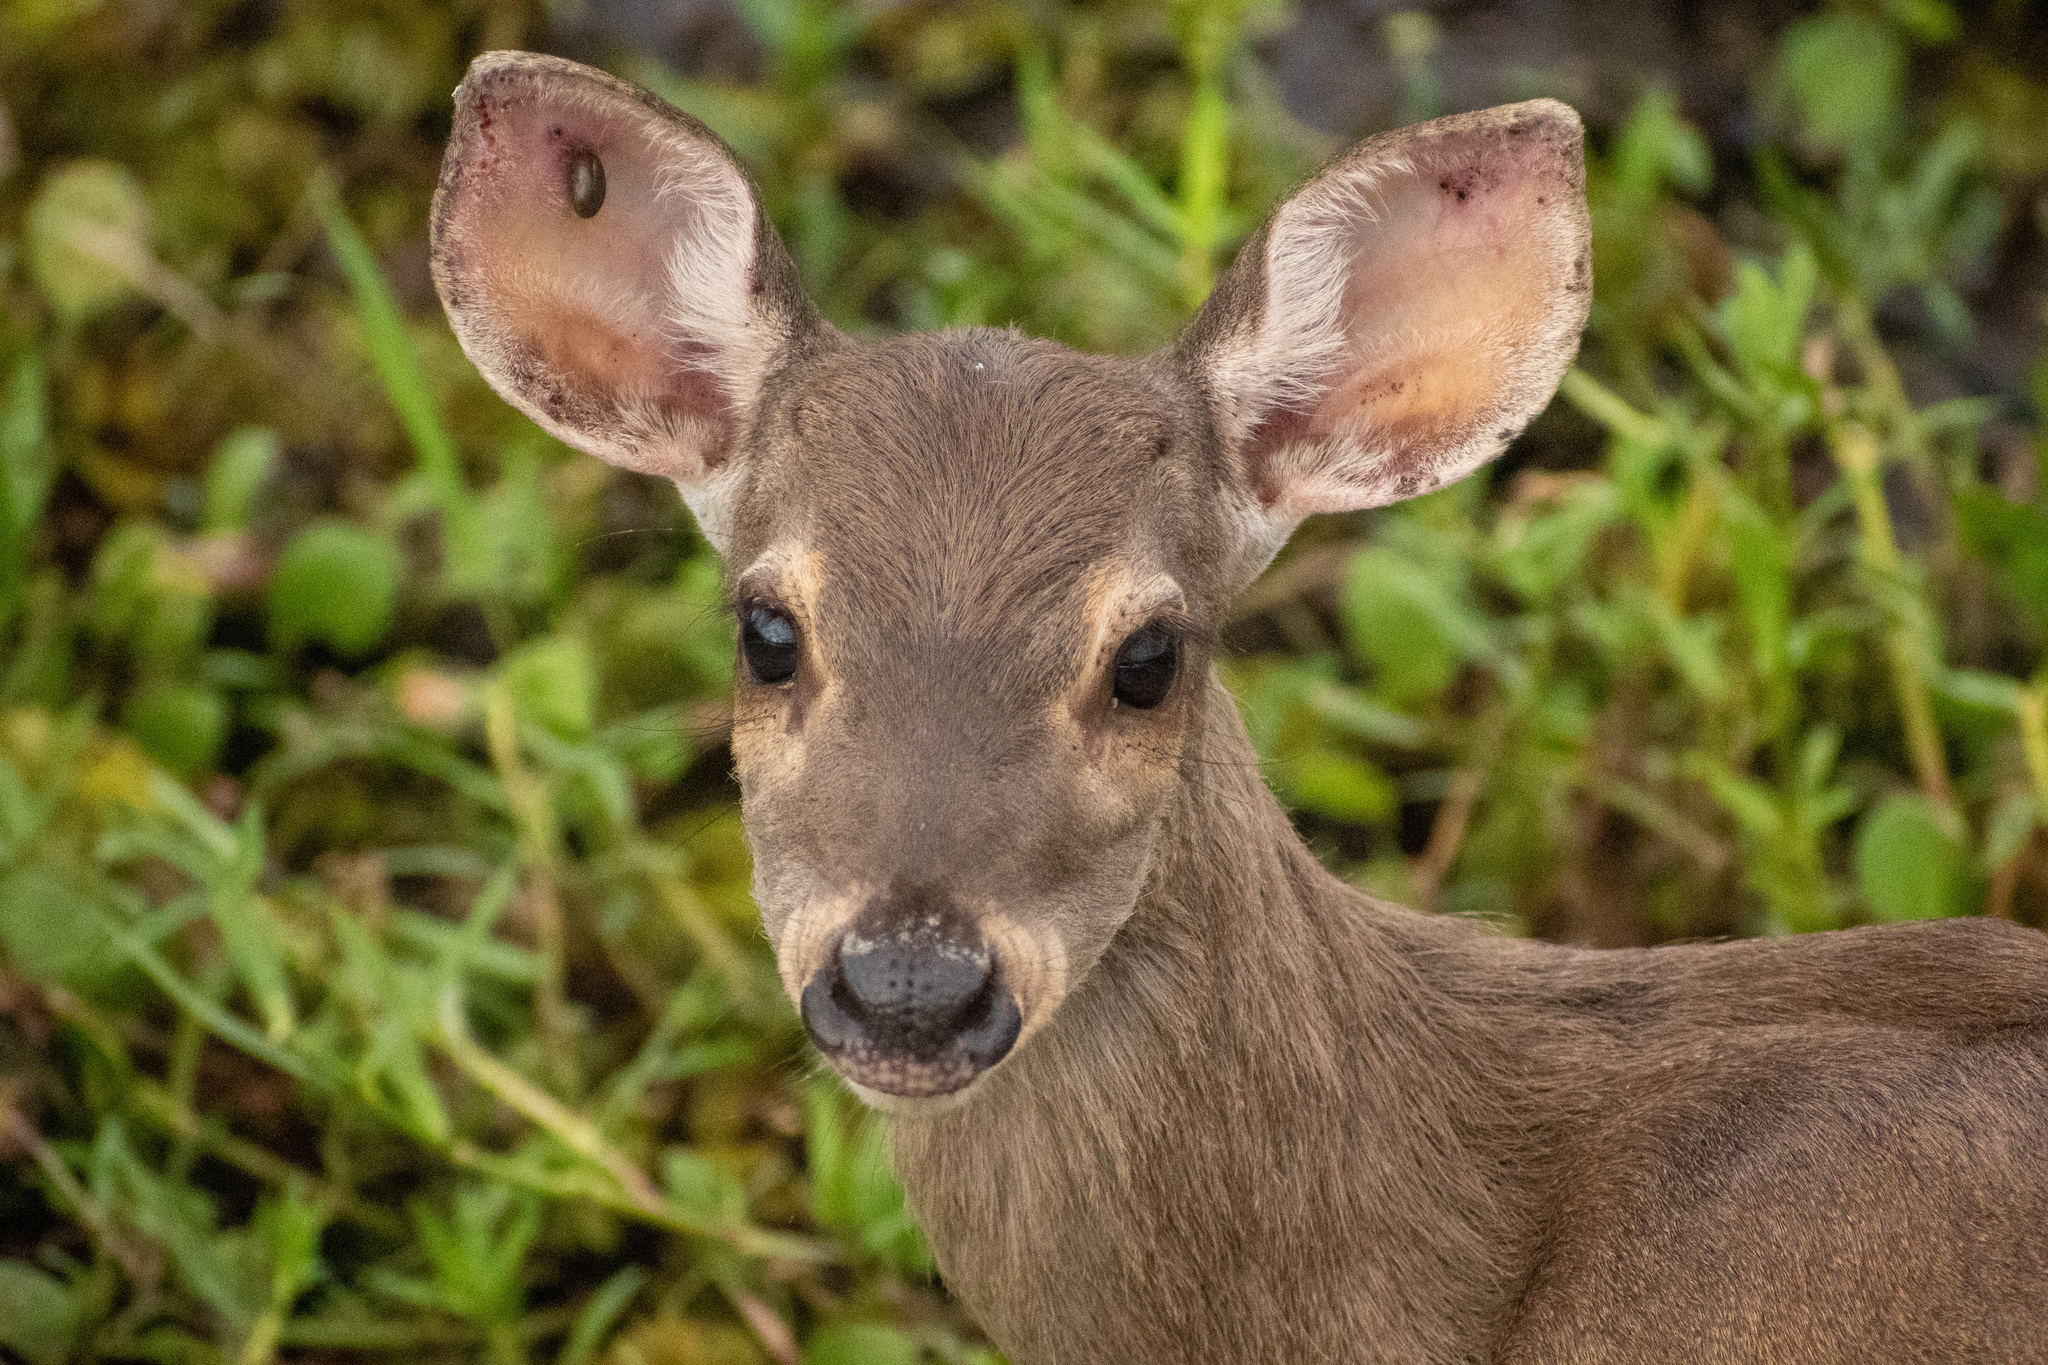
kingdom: Animalia
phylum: Chordata
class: Mammalia
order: Artiodactyla
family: Cervidae
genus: Mazama
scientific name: Mazama gouazoubira
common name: Gray brocket
